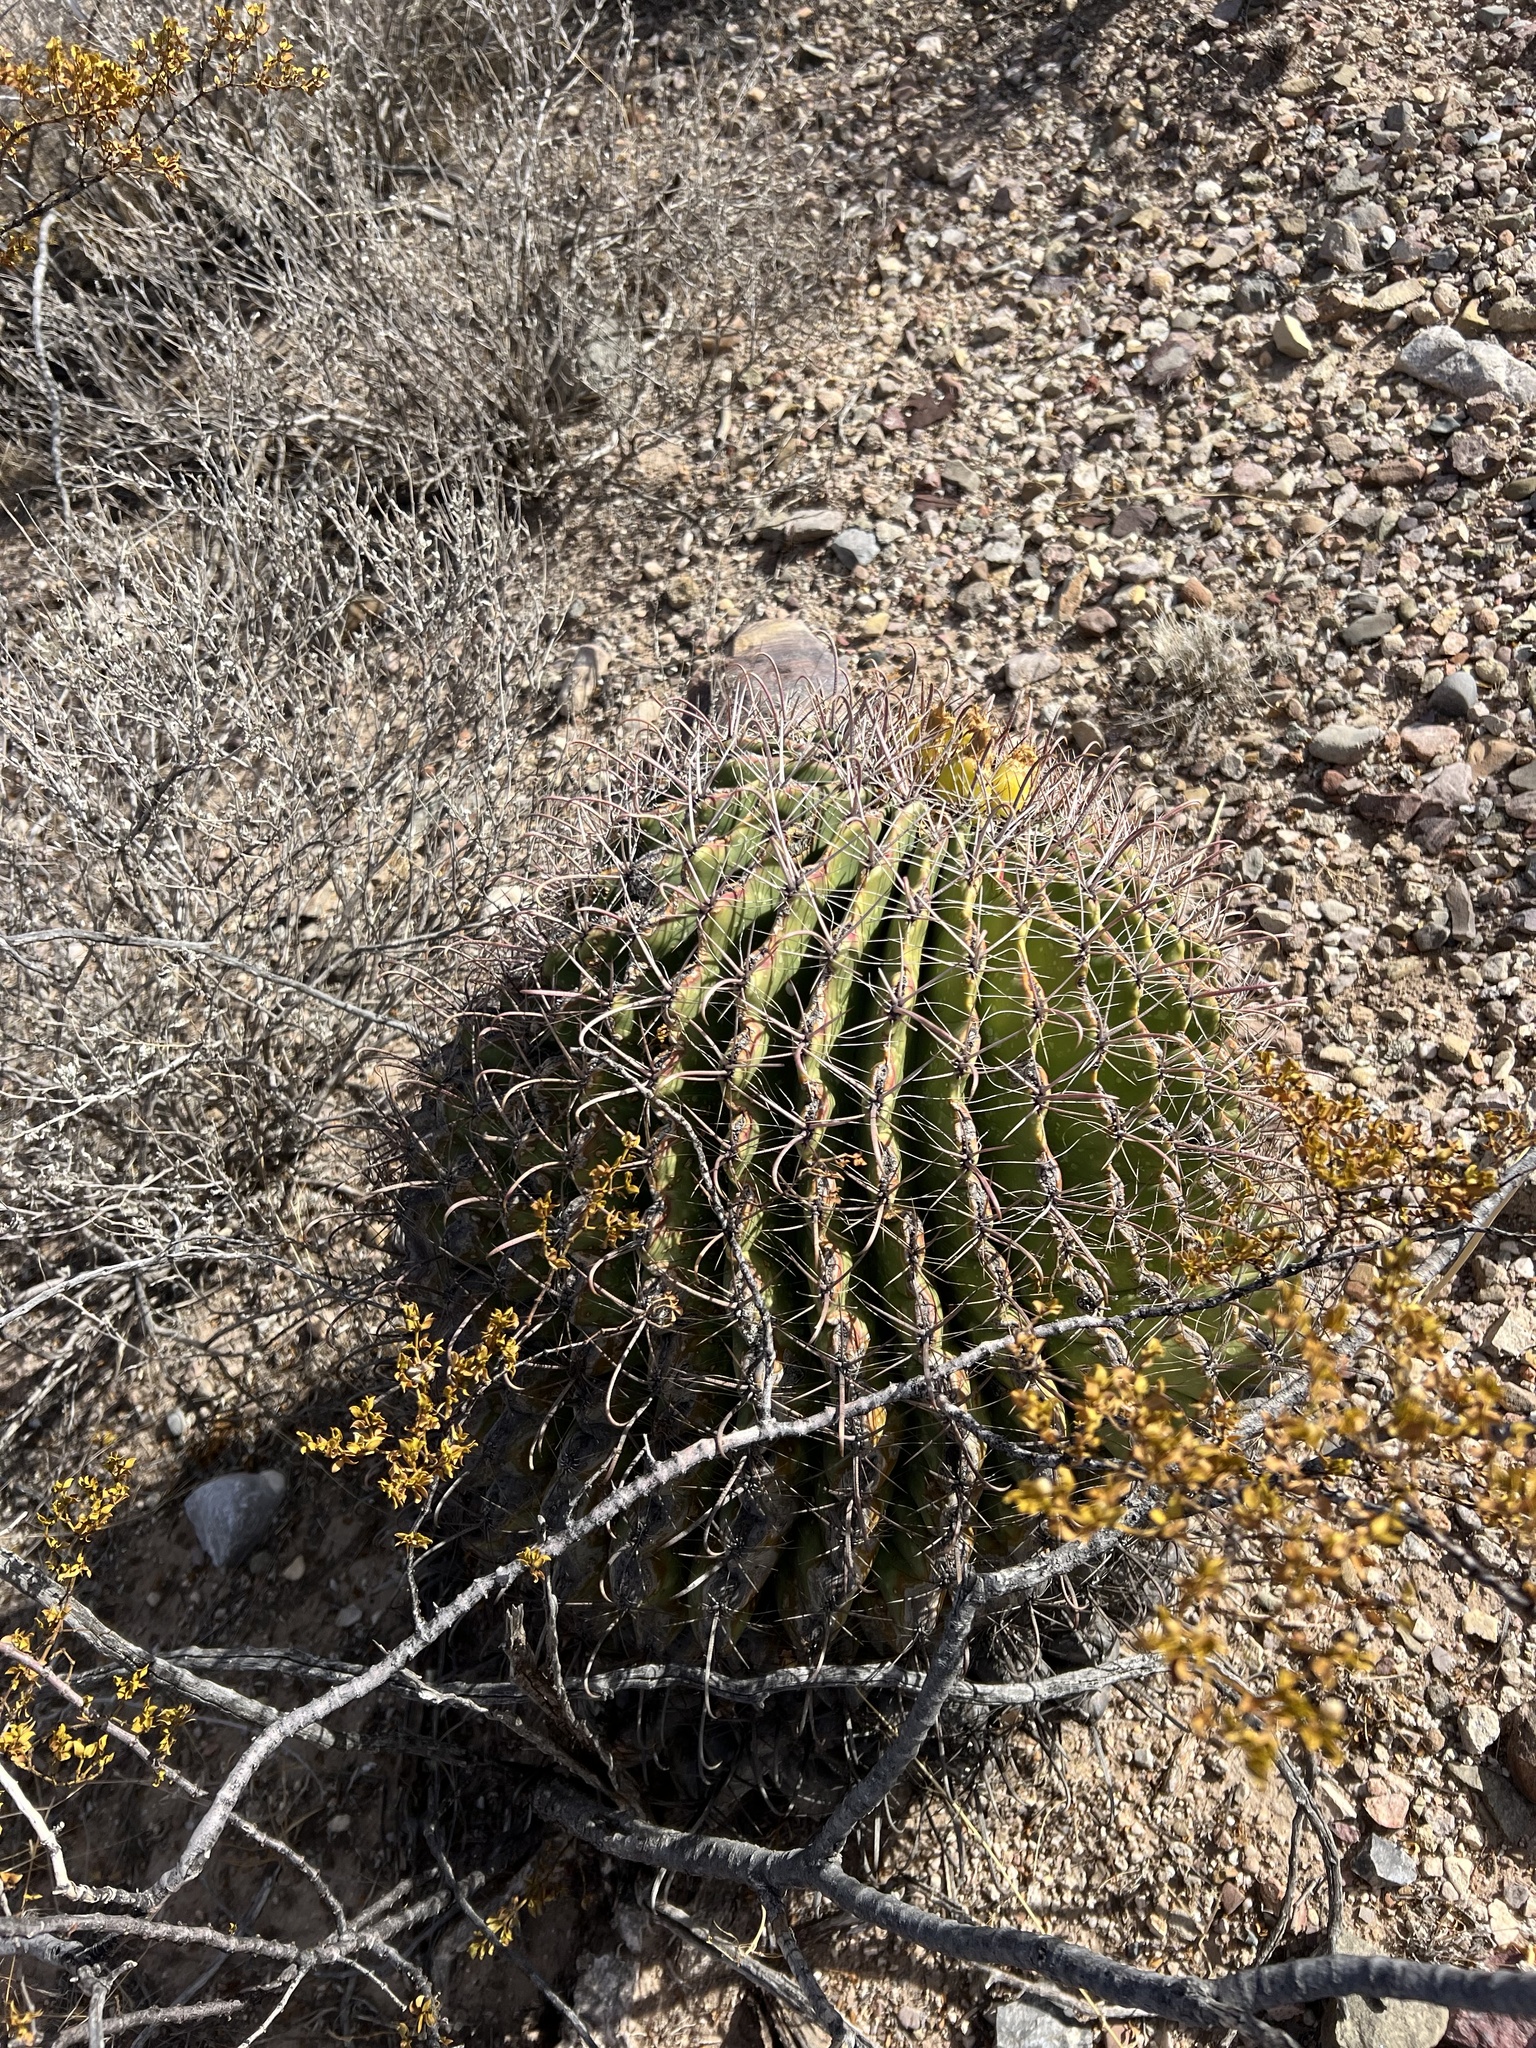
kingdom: Plantae
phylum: Tracheophyta
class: Magnoliopsida
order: Caryophyllales
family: Cactaceae
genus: Ferocactus
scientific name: Ferocactus wislizeni
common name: Candy barrel cactus
